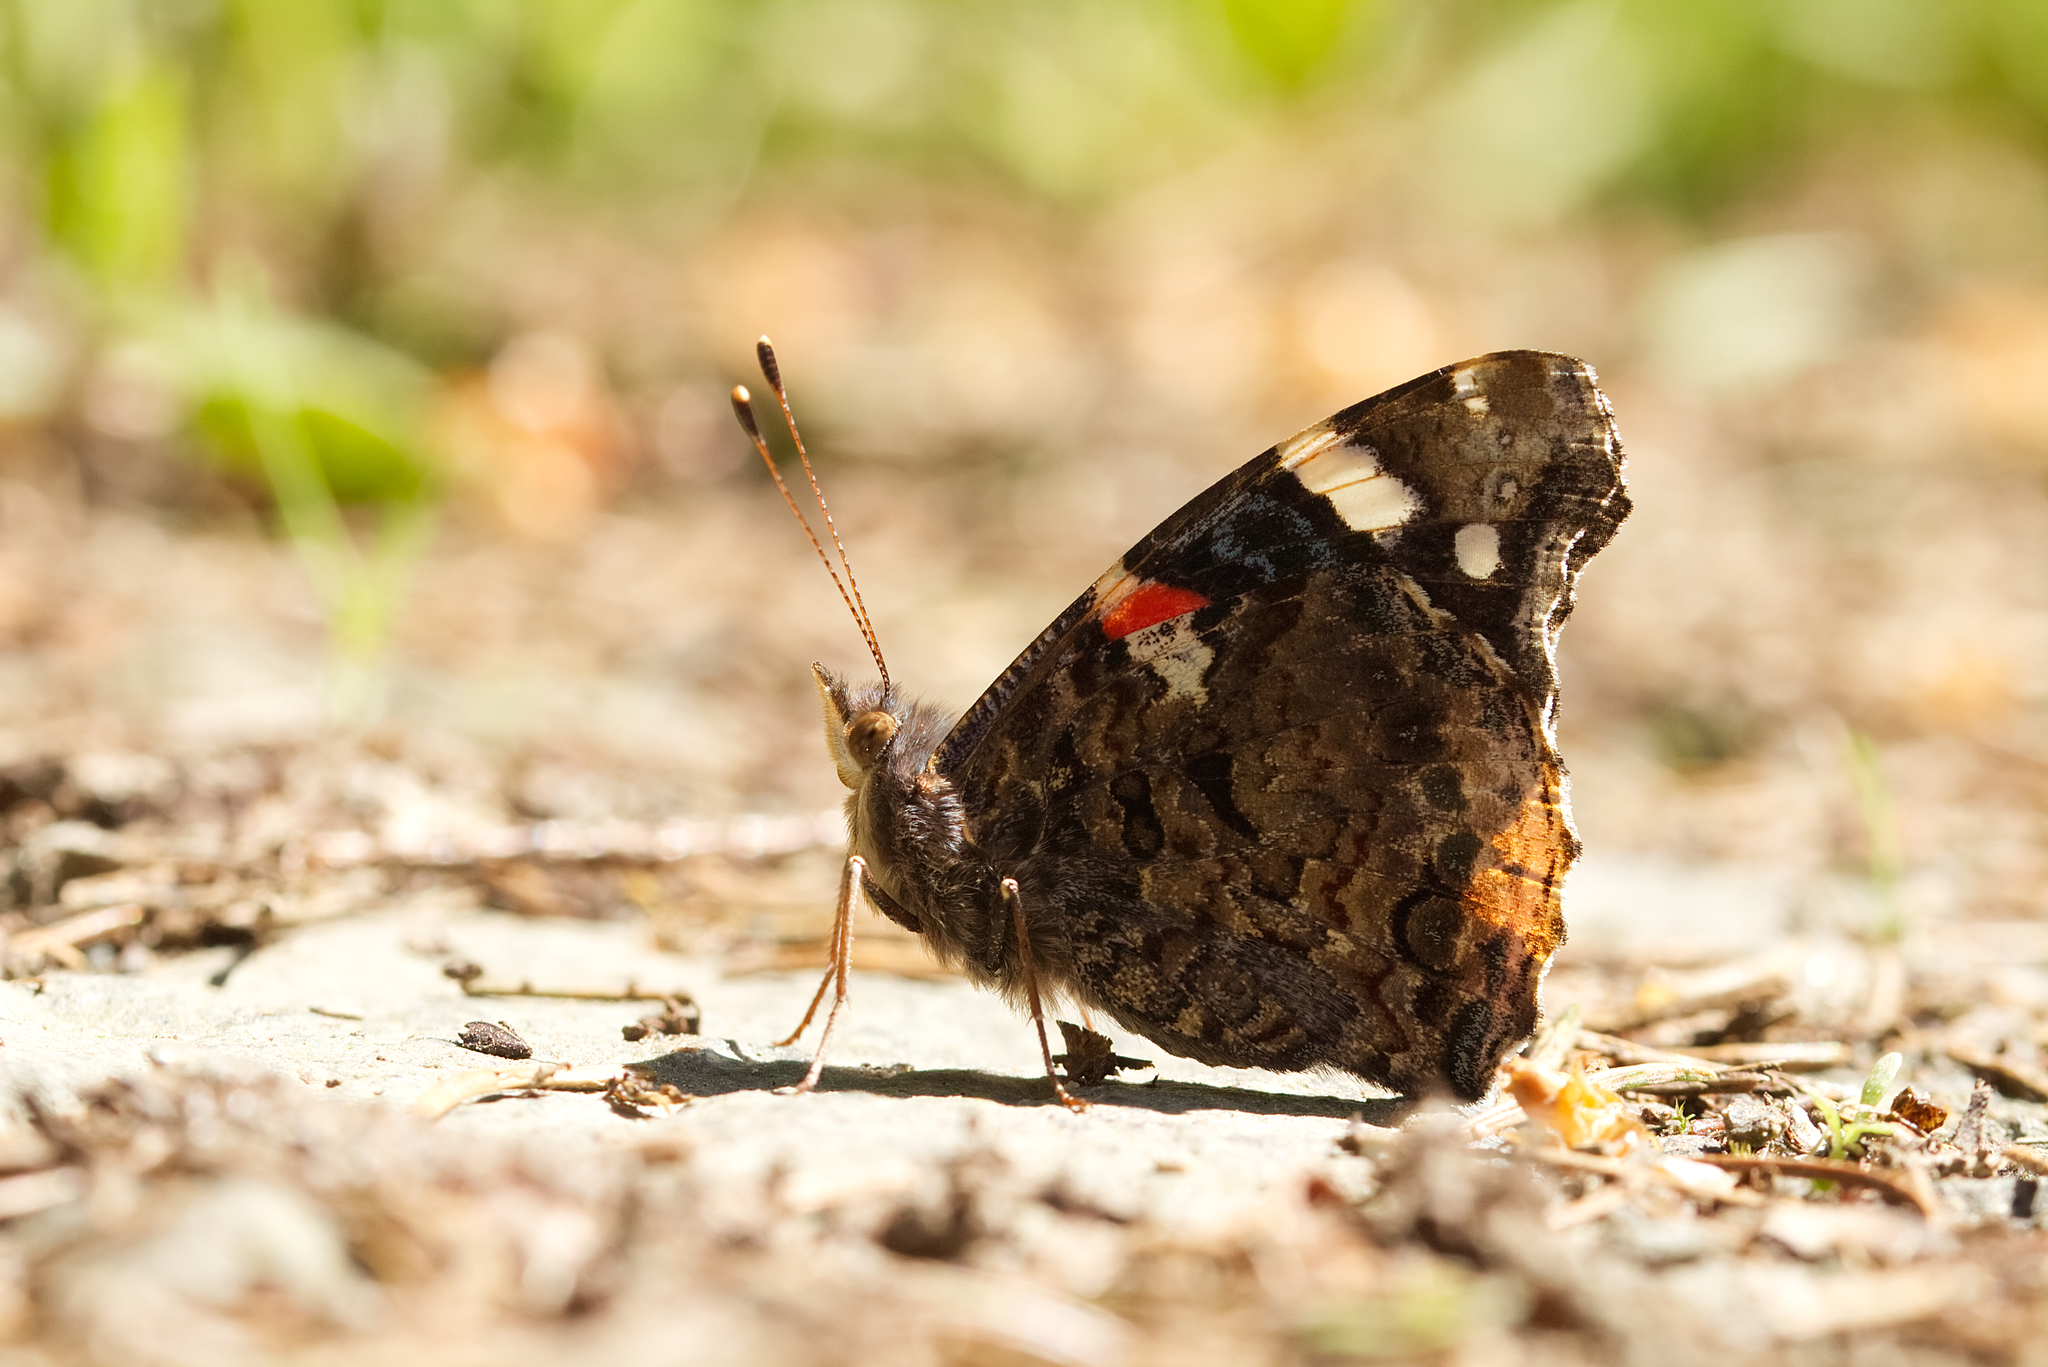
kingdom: Animalia
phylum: Arthropoda
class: Insecta
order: Lepidoptera
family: Nymphalidae
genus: Vanessa
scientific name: Vanessa atalanta
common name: Red admiral
